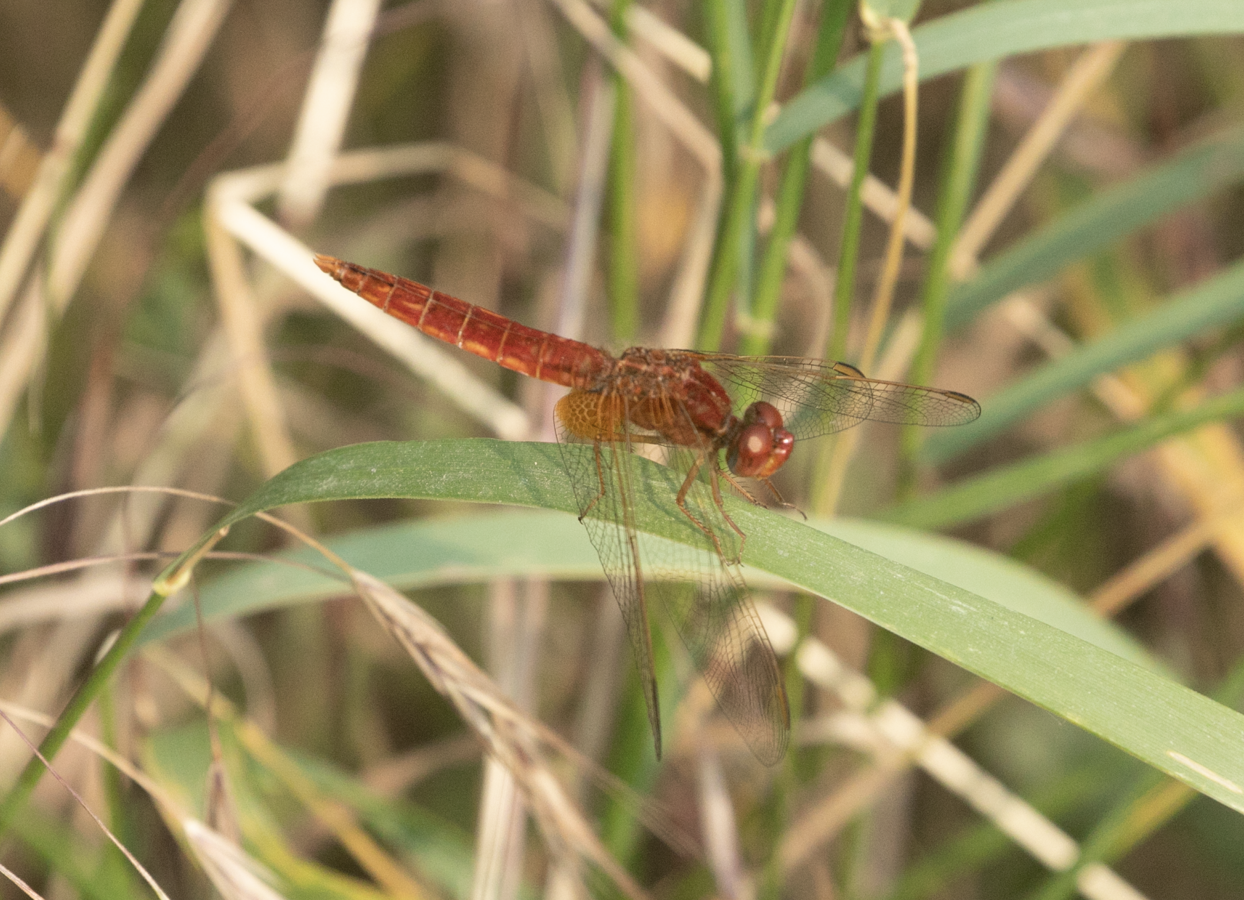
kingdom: Animalia
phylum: Arthropoda
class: Insecta
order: Odonata
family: Libellulidae
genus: Crocothemis
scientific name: Crocothemis erythraea
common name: Scarlet dragonfly
